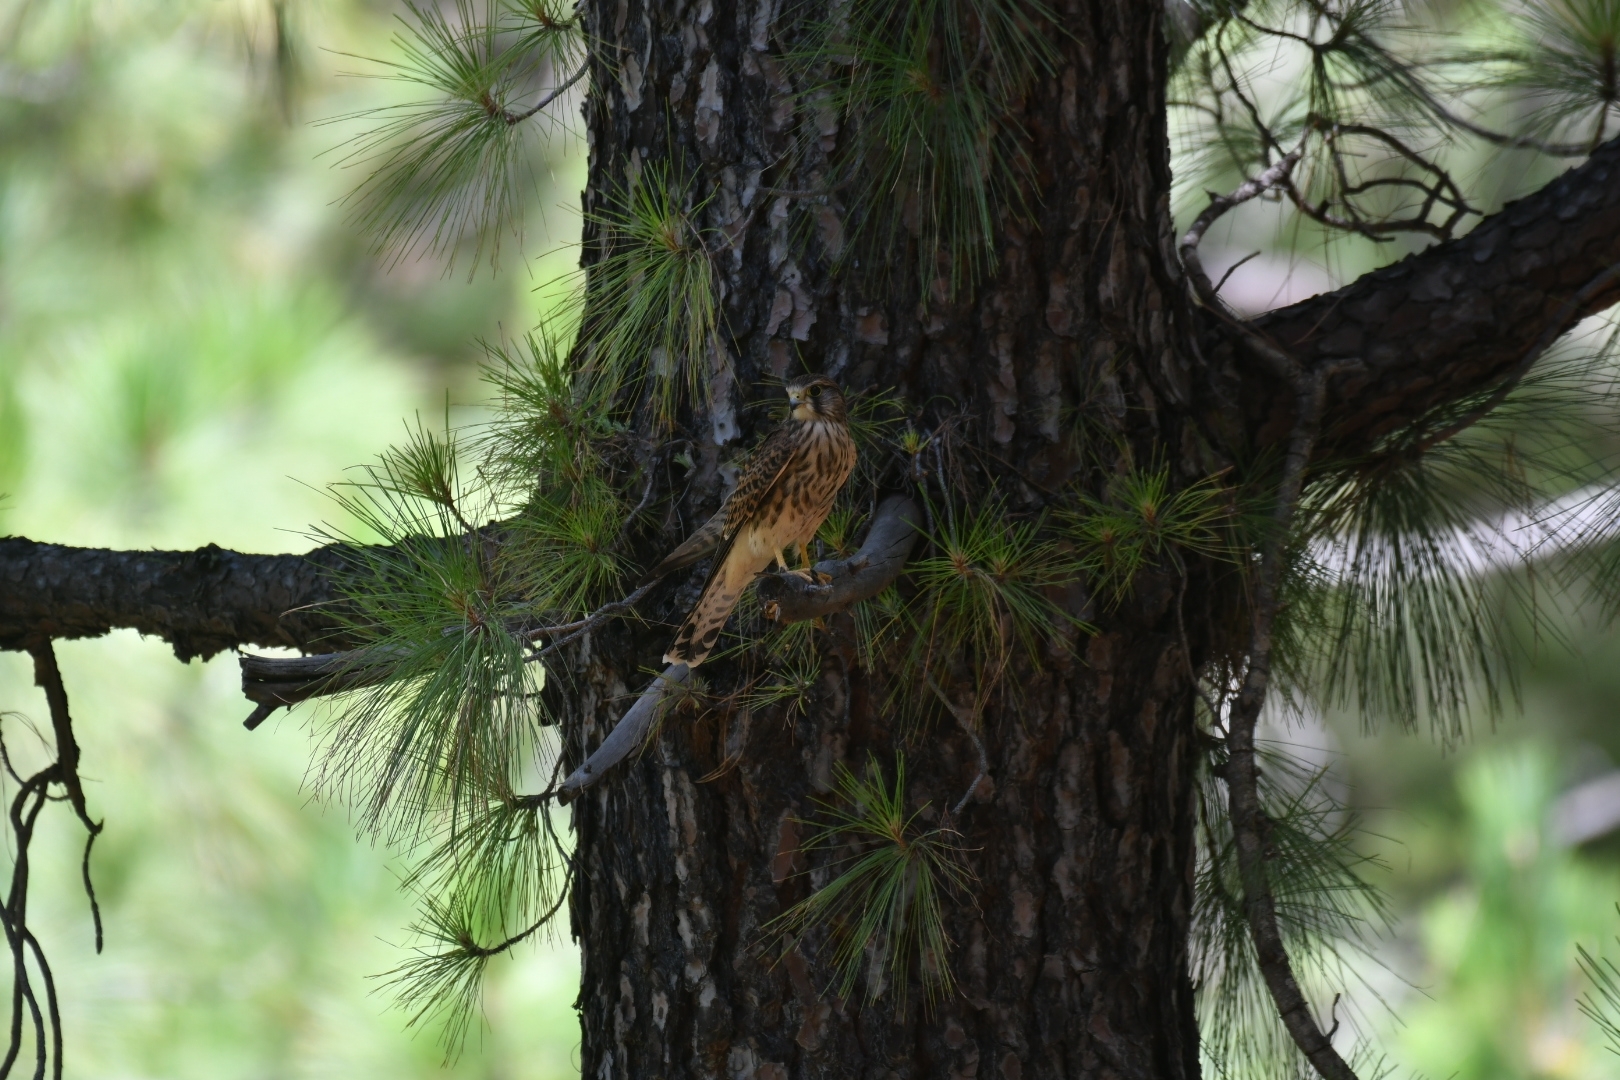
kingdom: Animalia
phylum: Chordata
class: Aves
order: Falconiformes
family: Falconidae
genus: Falco
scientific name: Falco tinnunculus
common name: Common kestrel
